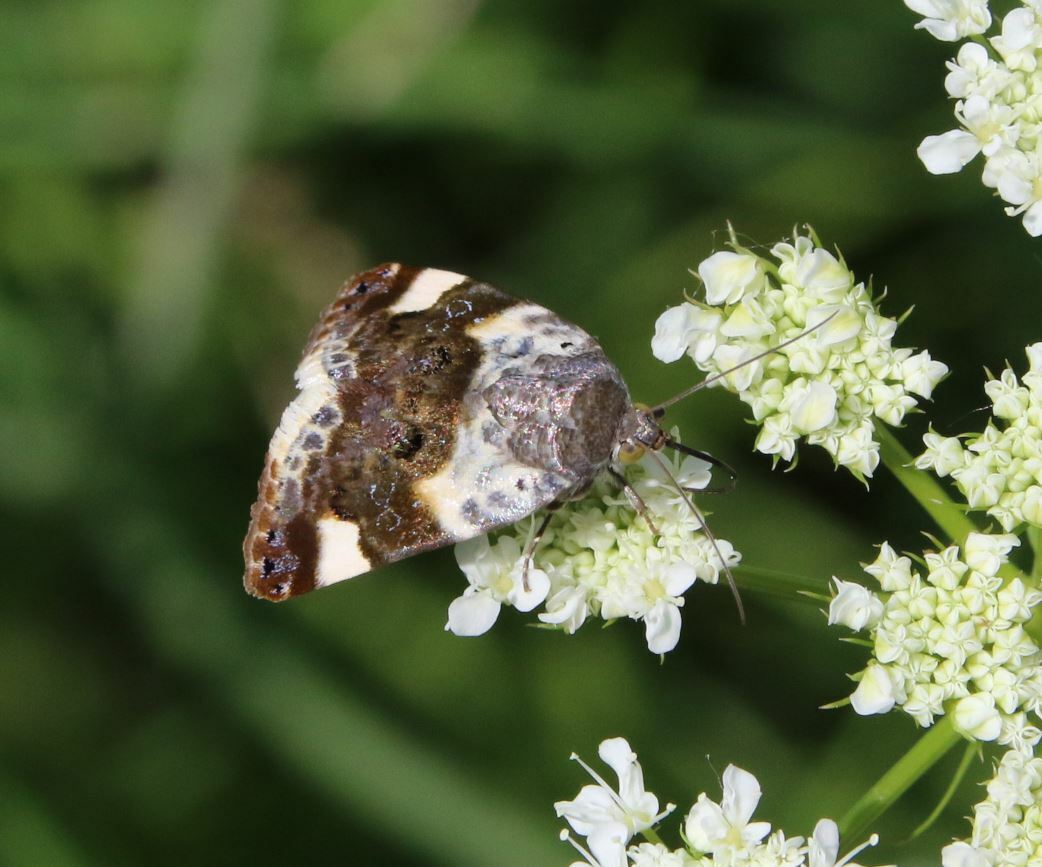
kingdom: Animalia
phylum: Arthropoda
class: Insecta
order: Lepidoptera
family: Noctuidae
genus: Acontia
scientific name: Acontia lucida
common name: Pale shoulder
